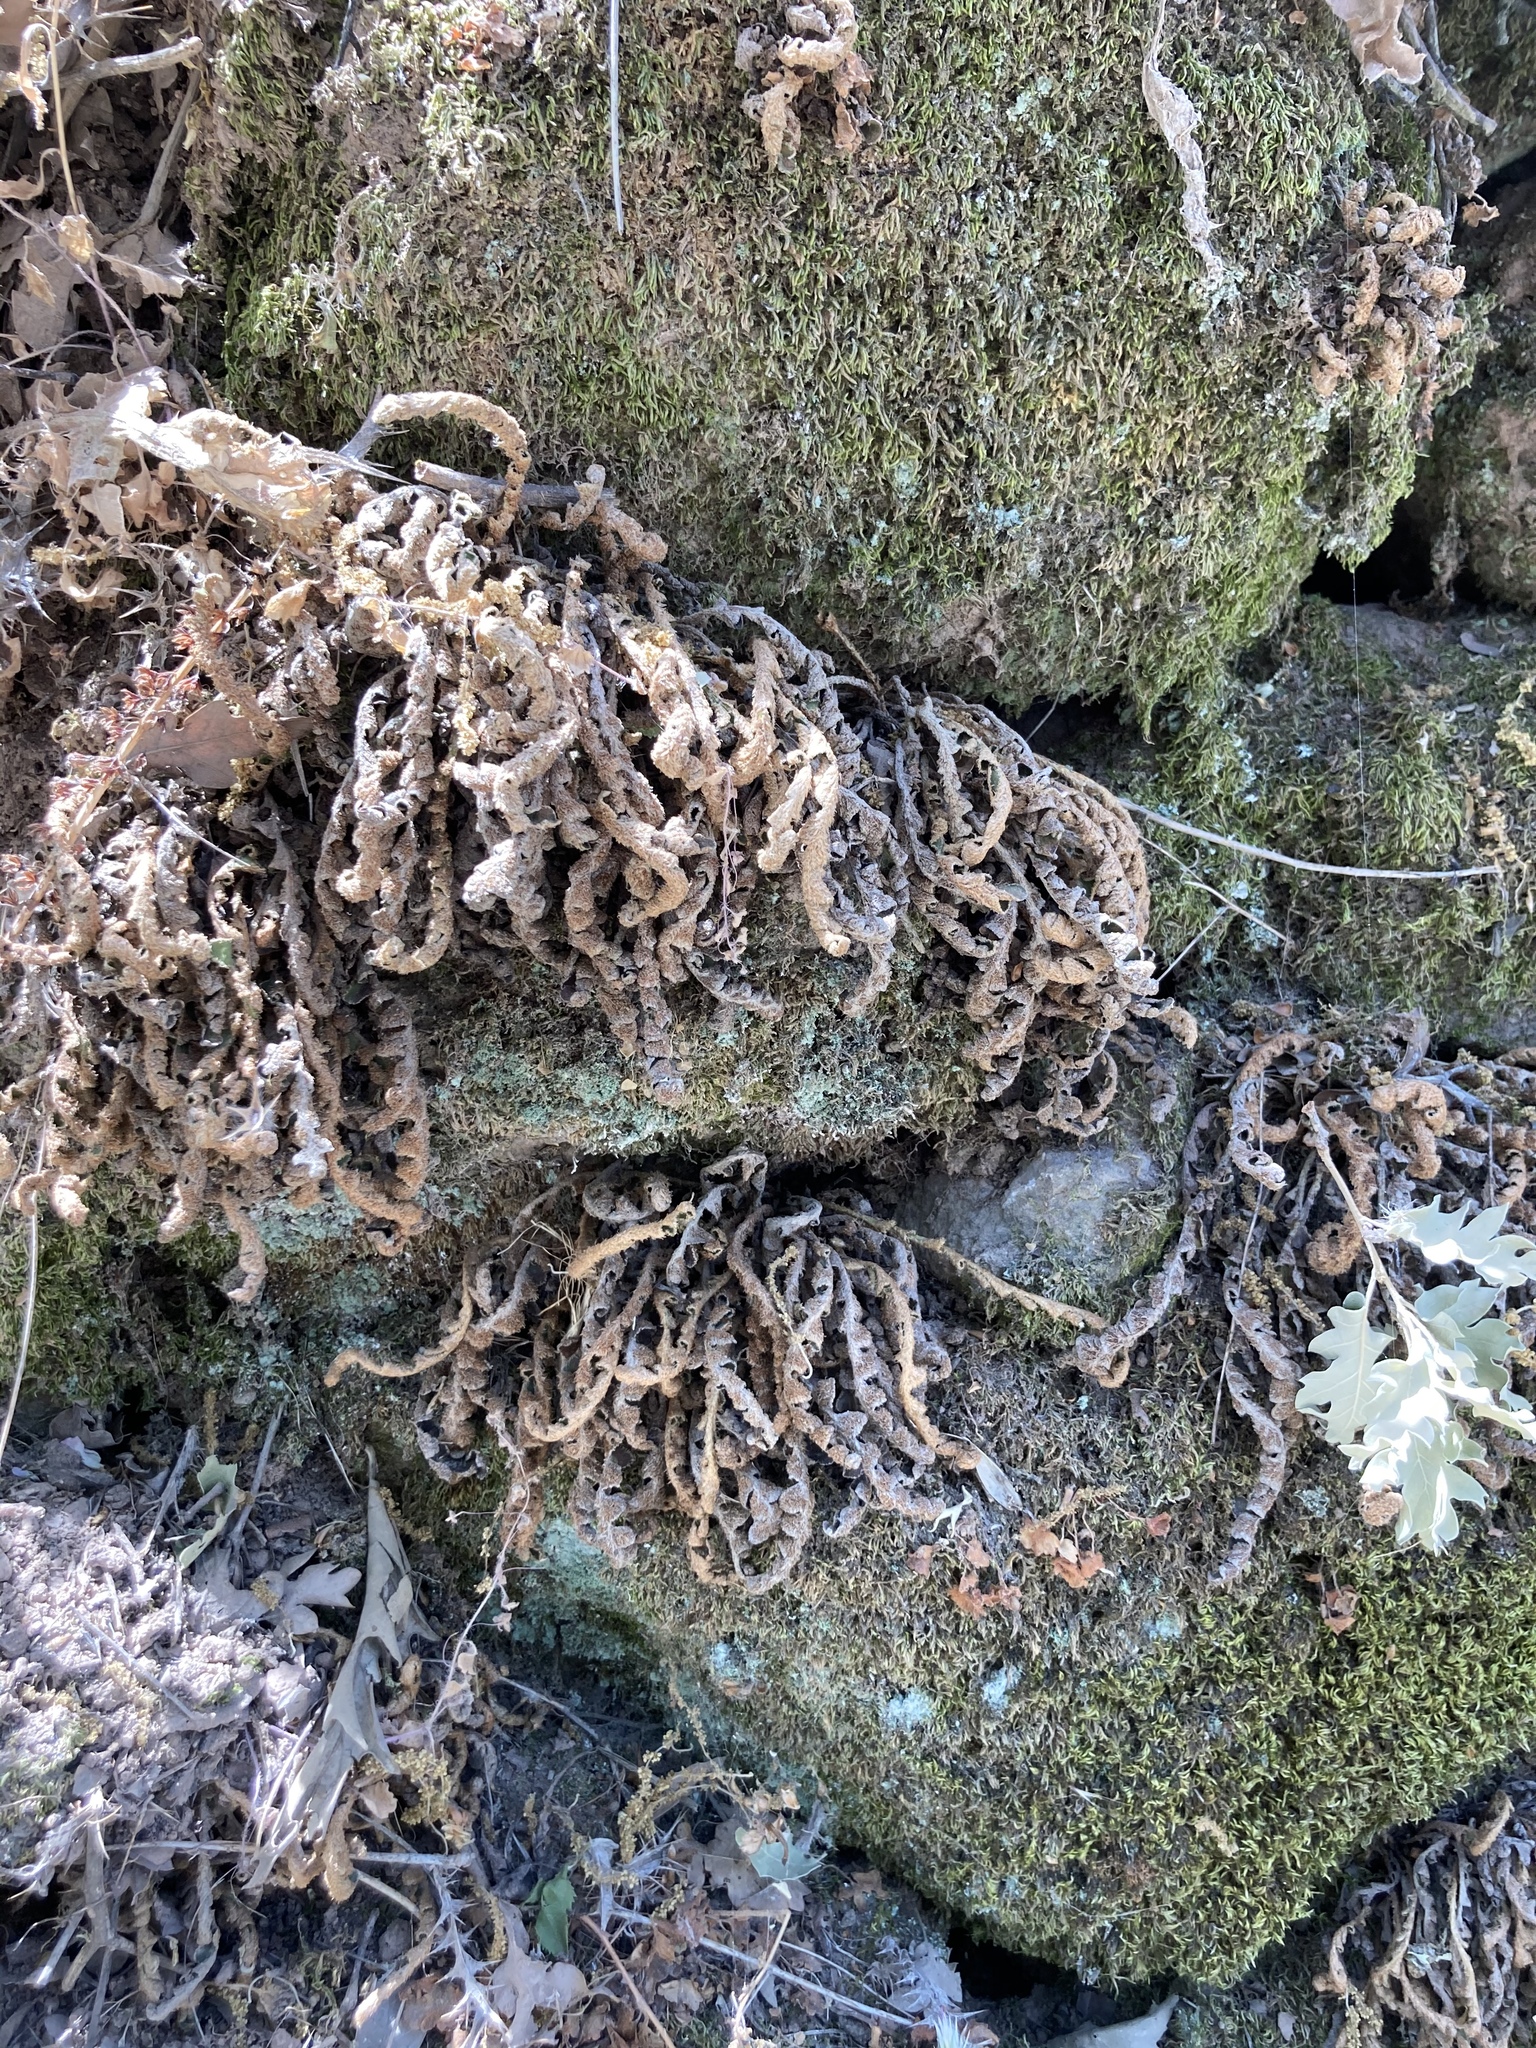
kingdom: Plantae
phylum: Tracheophyta
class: Polypodiopsida
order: Polypodiales
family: Aspleniaceae
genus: Asplenium
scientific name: Asplenium ceterach
